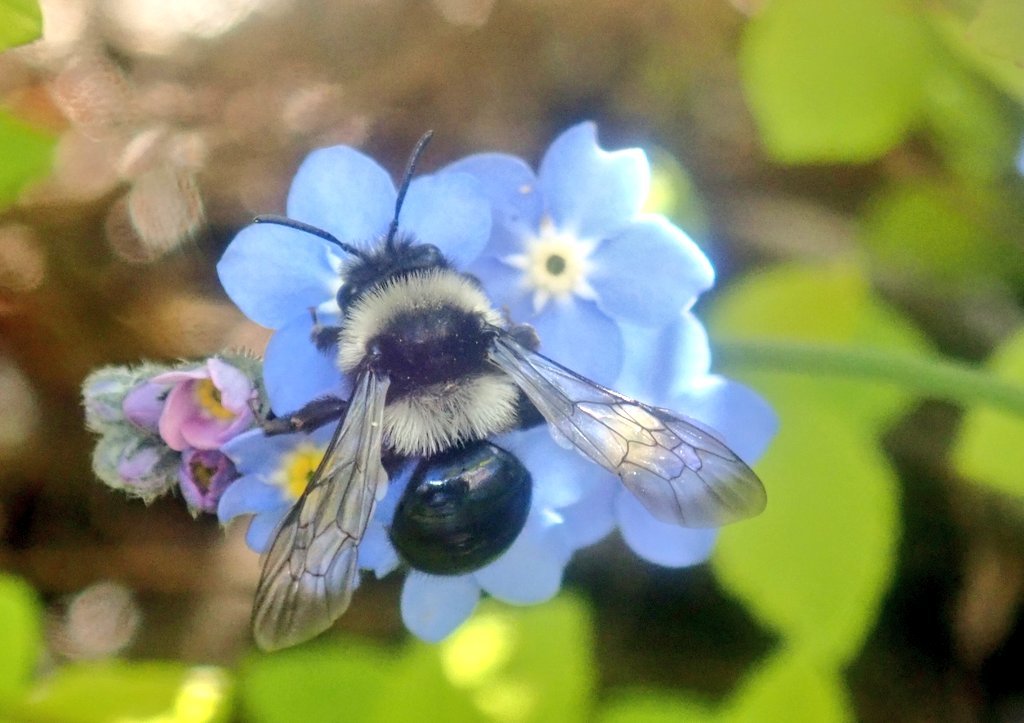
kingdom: Animalia
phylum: Arthropoda
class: Insecta
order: Hymenoptera
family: Andrenidae
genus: Andrena
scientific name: Andrena cineraria
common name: Ashy mining bee
